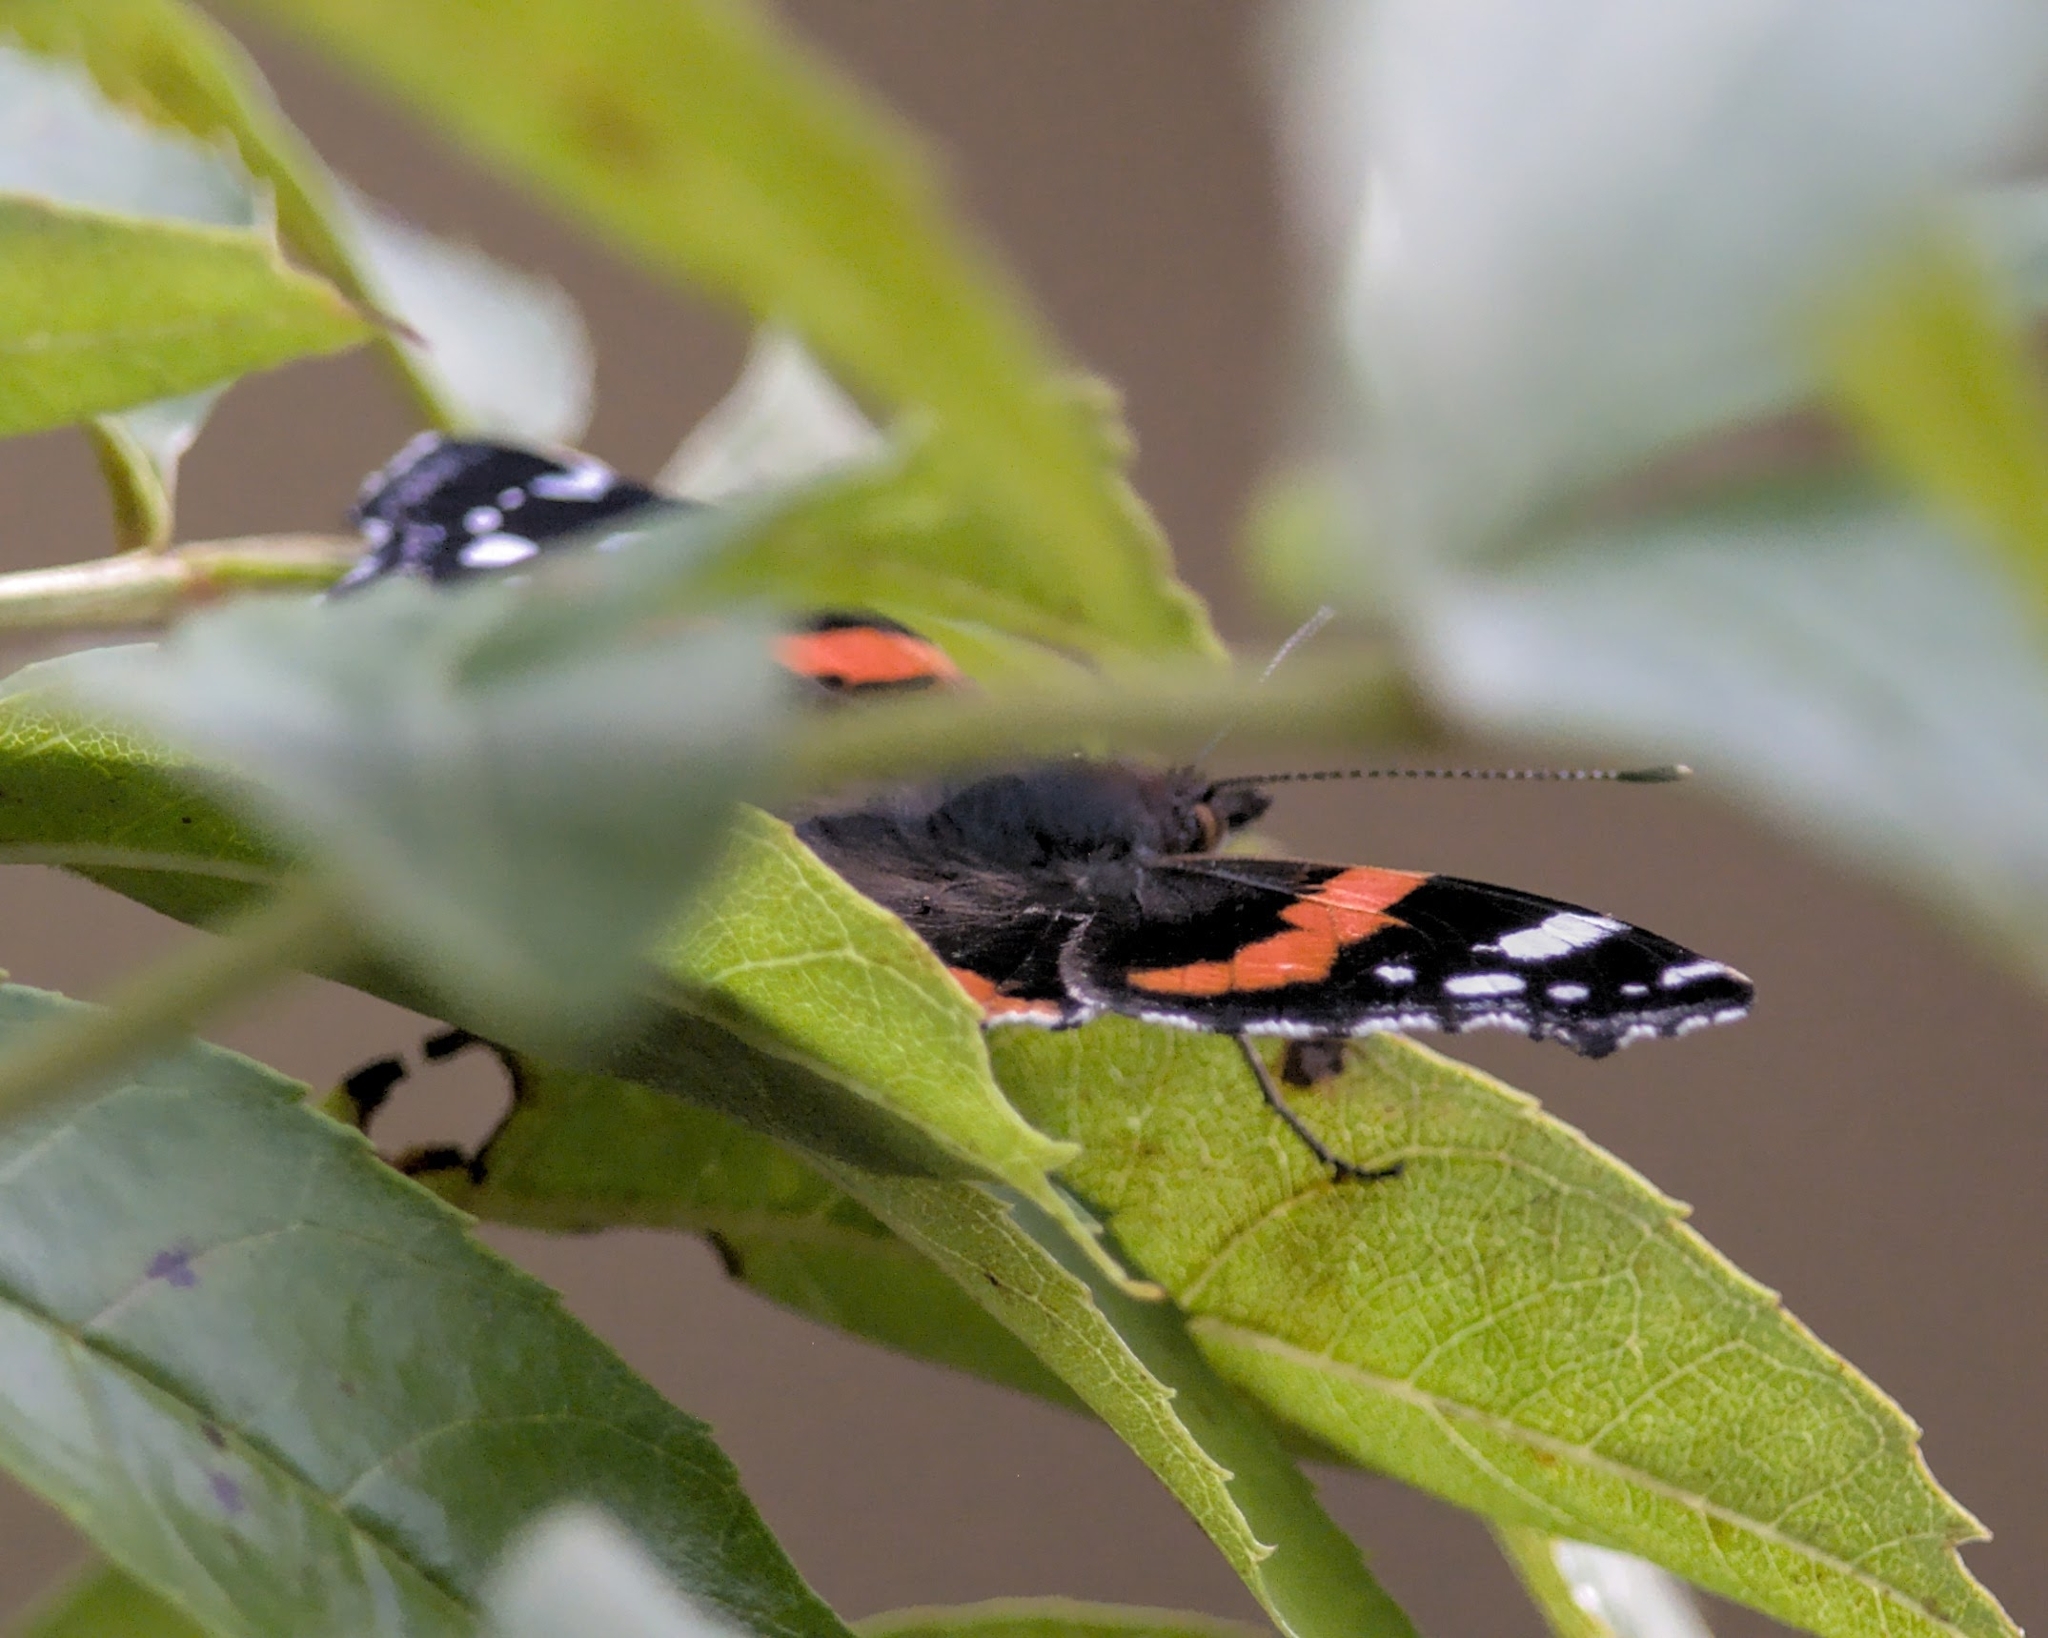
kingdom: Animalia
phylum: Arthropoda
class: Insecta
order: Lepidoptera
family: Nymphalidae
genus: Vanessa
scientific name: Vanessa atalanta
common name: Red admiral
